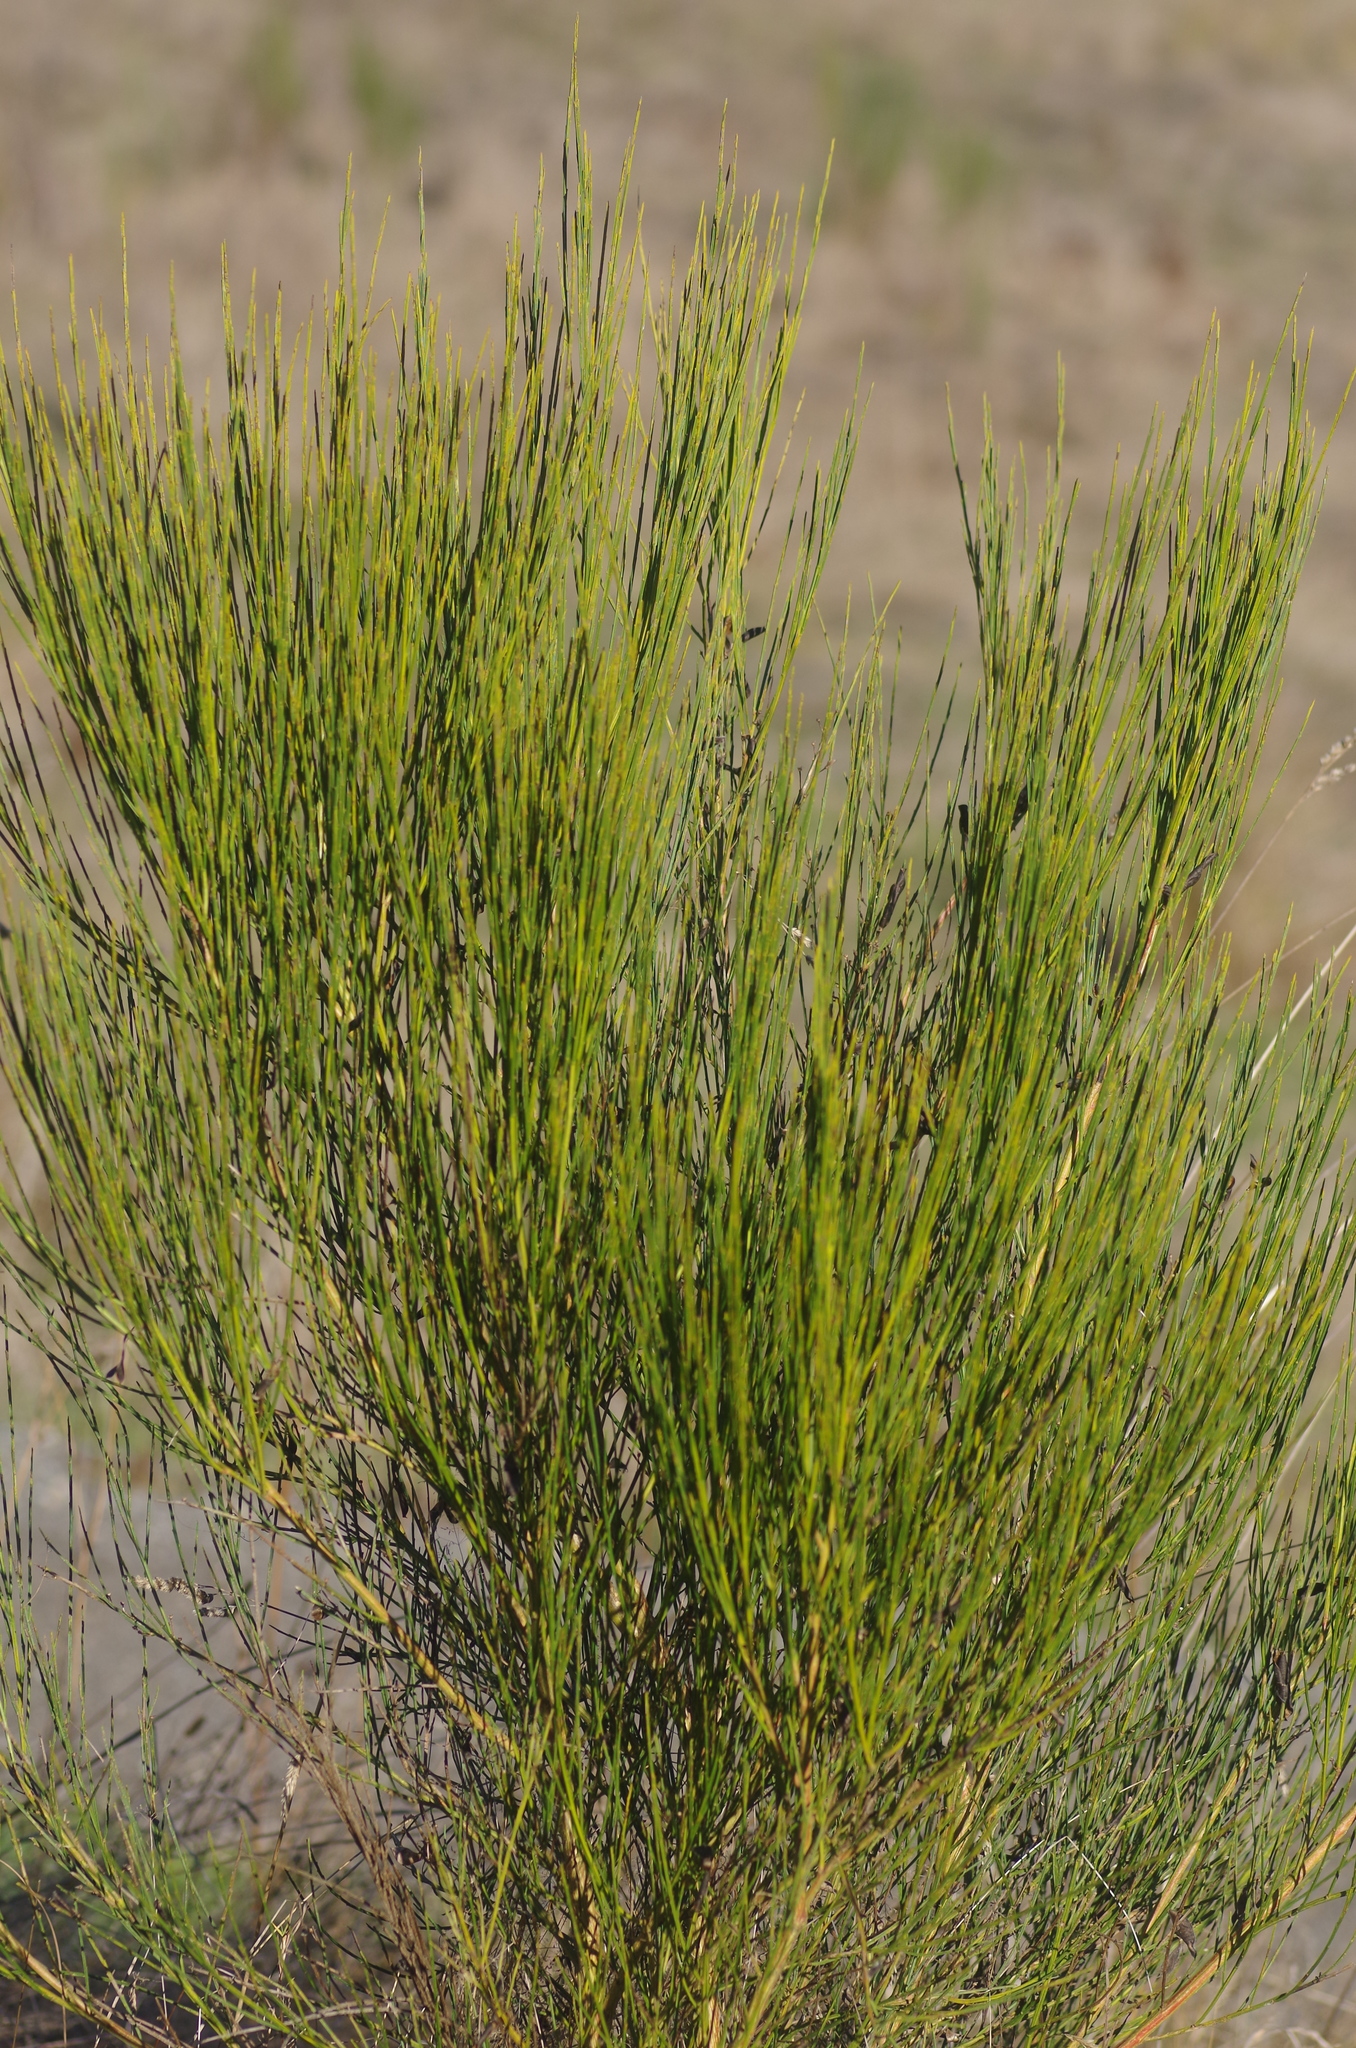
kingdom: Plantae
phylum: Tracheophyta
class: Magnoliopsida
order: Fabales
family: Fabaceae
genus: Cytisus
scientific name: Cytisus scoparius
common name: Scotch broom
